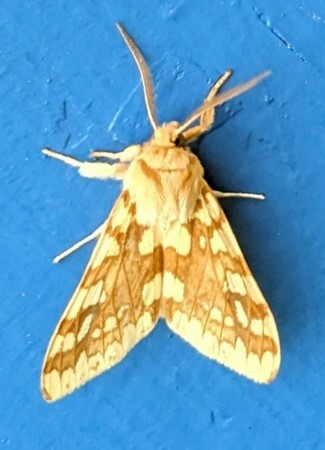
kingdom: Animalia
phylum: Arthropoda
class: Insecta
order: Lepidoptera
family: Erebidae
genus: Lophocampa
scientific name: Lophocampa maculata
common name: Spotted tussock moth
